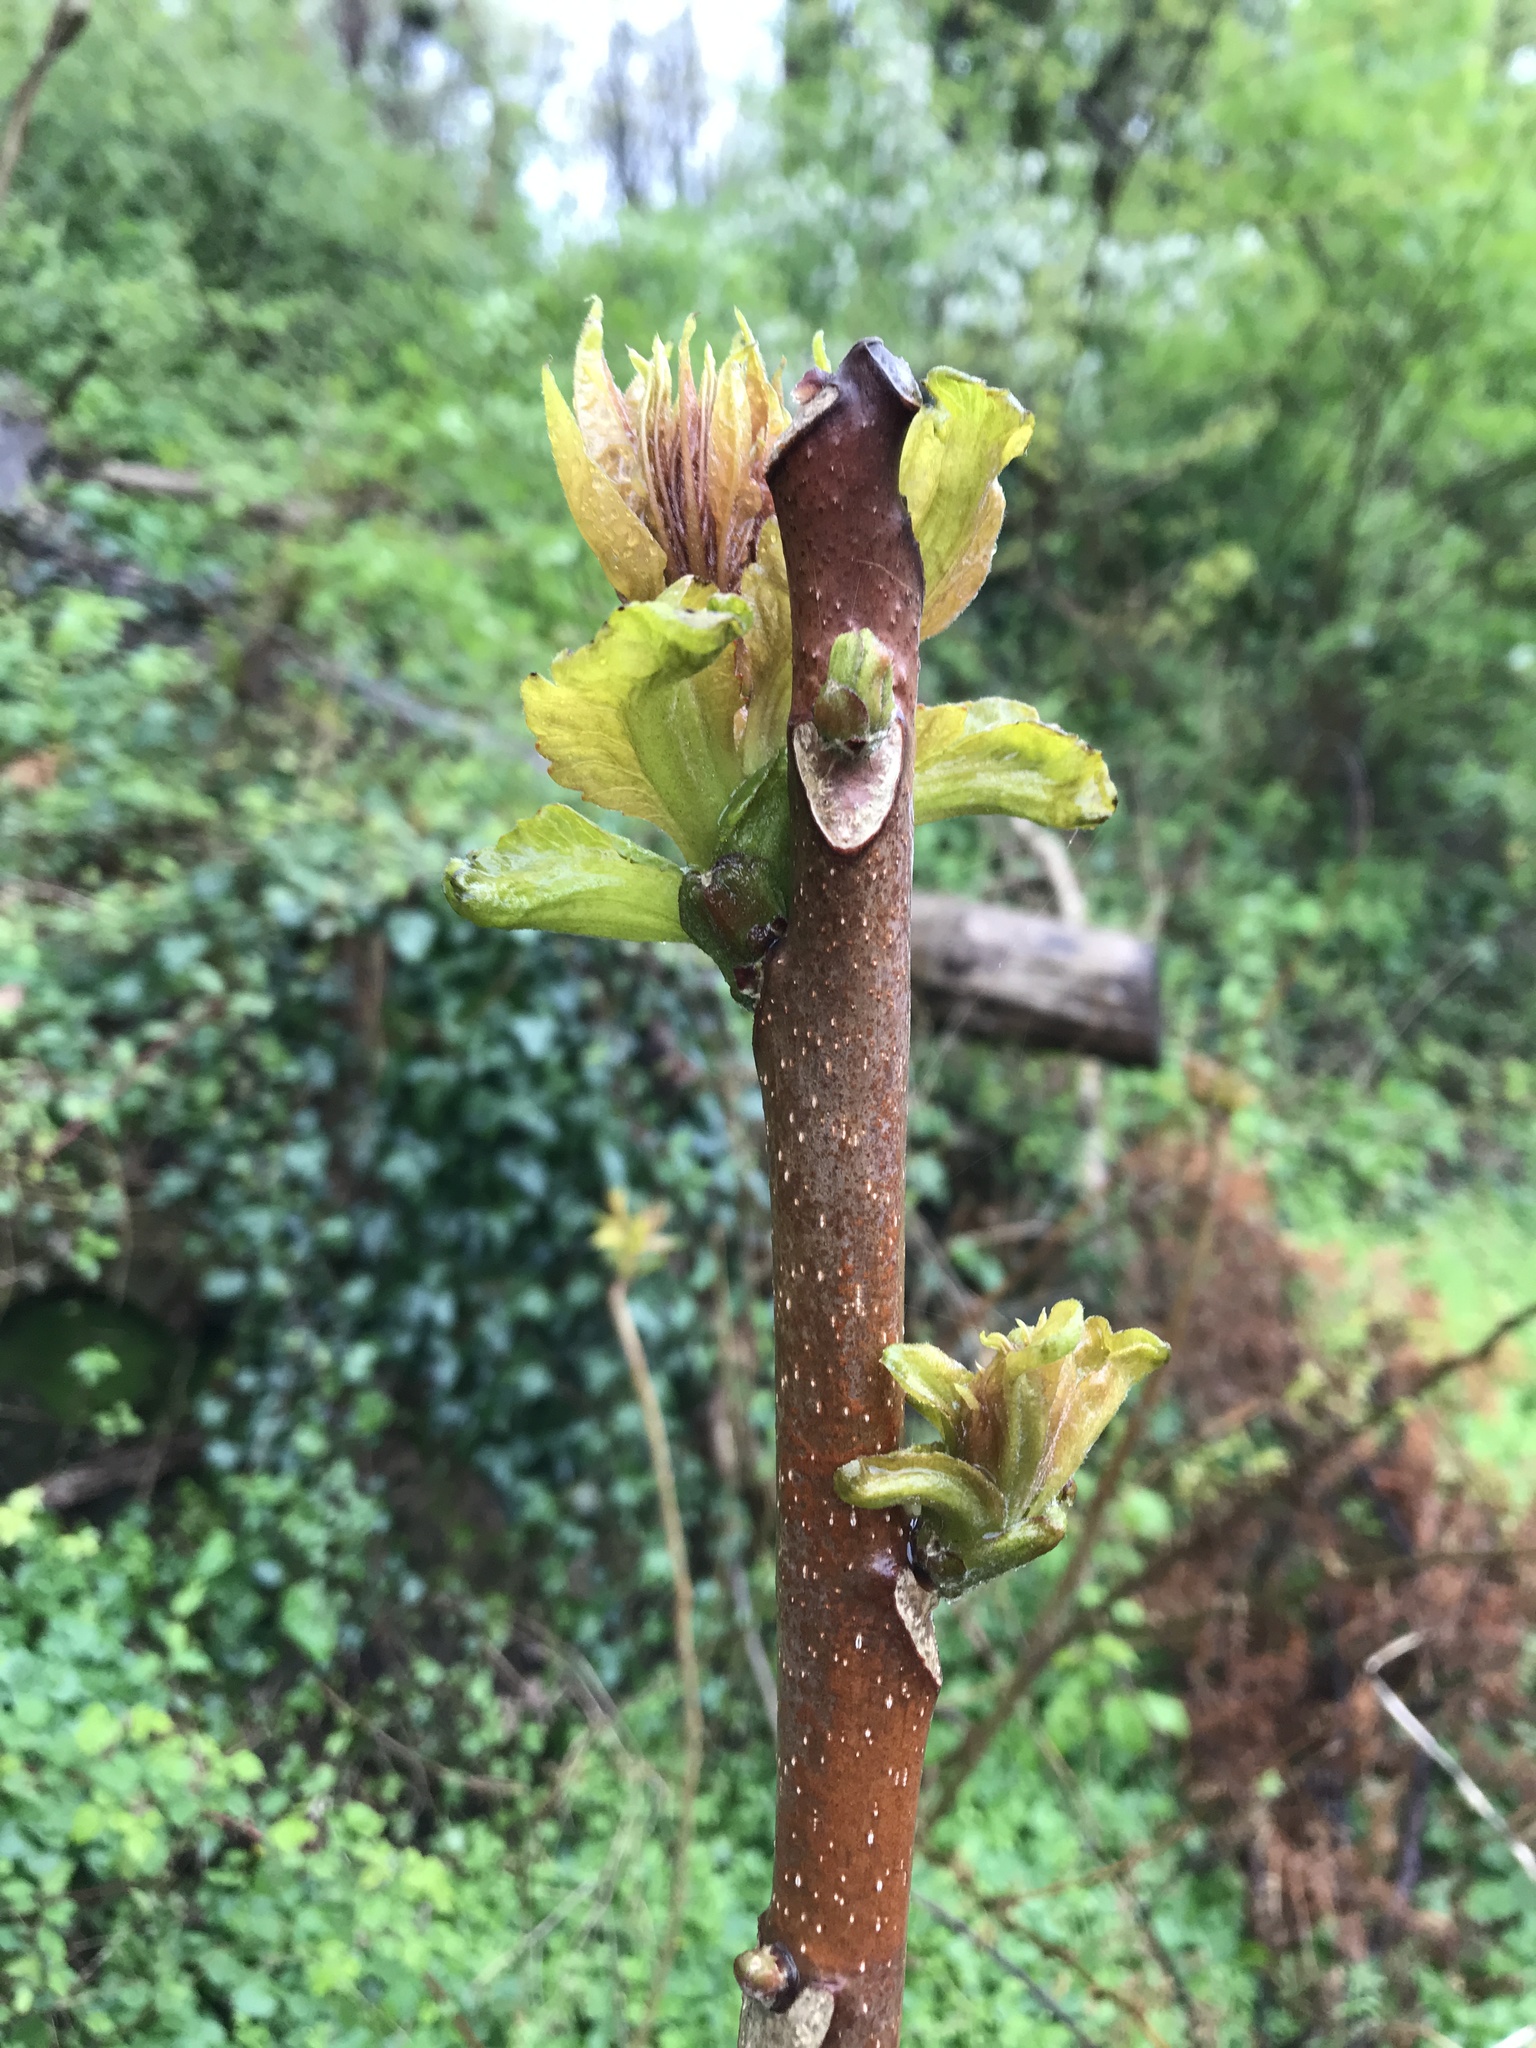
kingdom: Plantae
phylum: Tracheophyta
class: Magnoliopsida
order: Sapindales
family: Simaroubaceae
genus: Ailanthus
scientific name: Ailanthus altissima
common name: Tree-of-heaven
